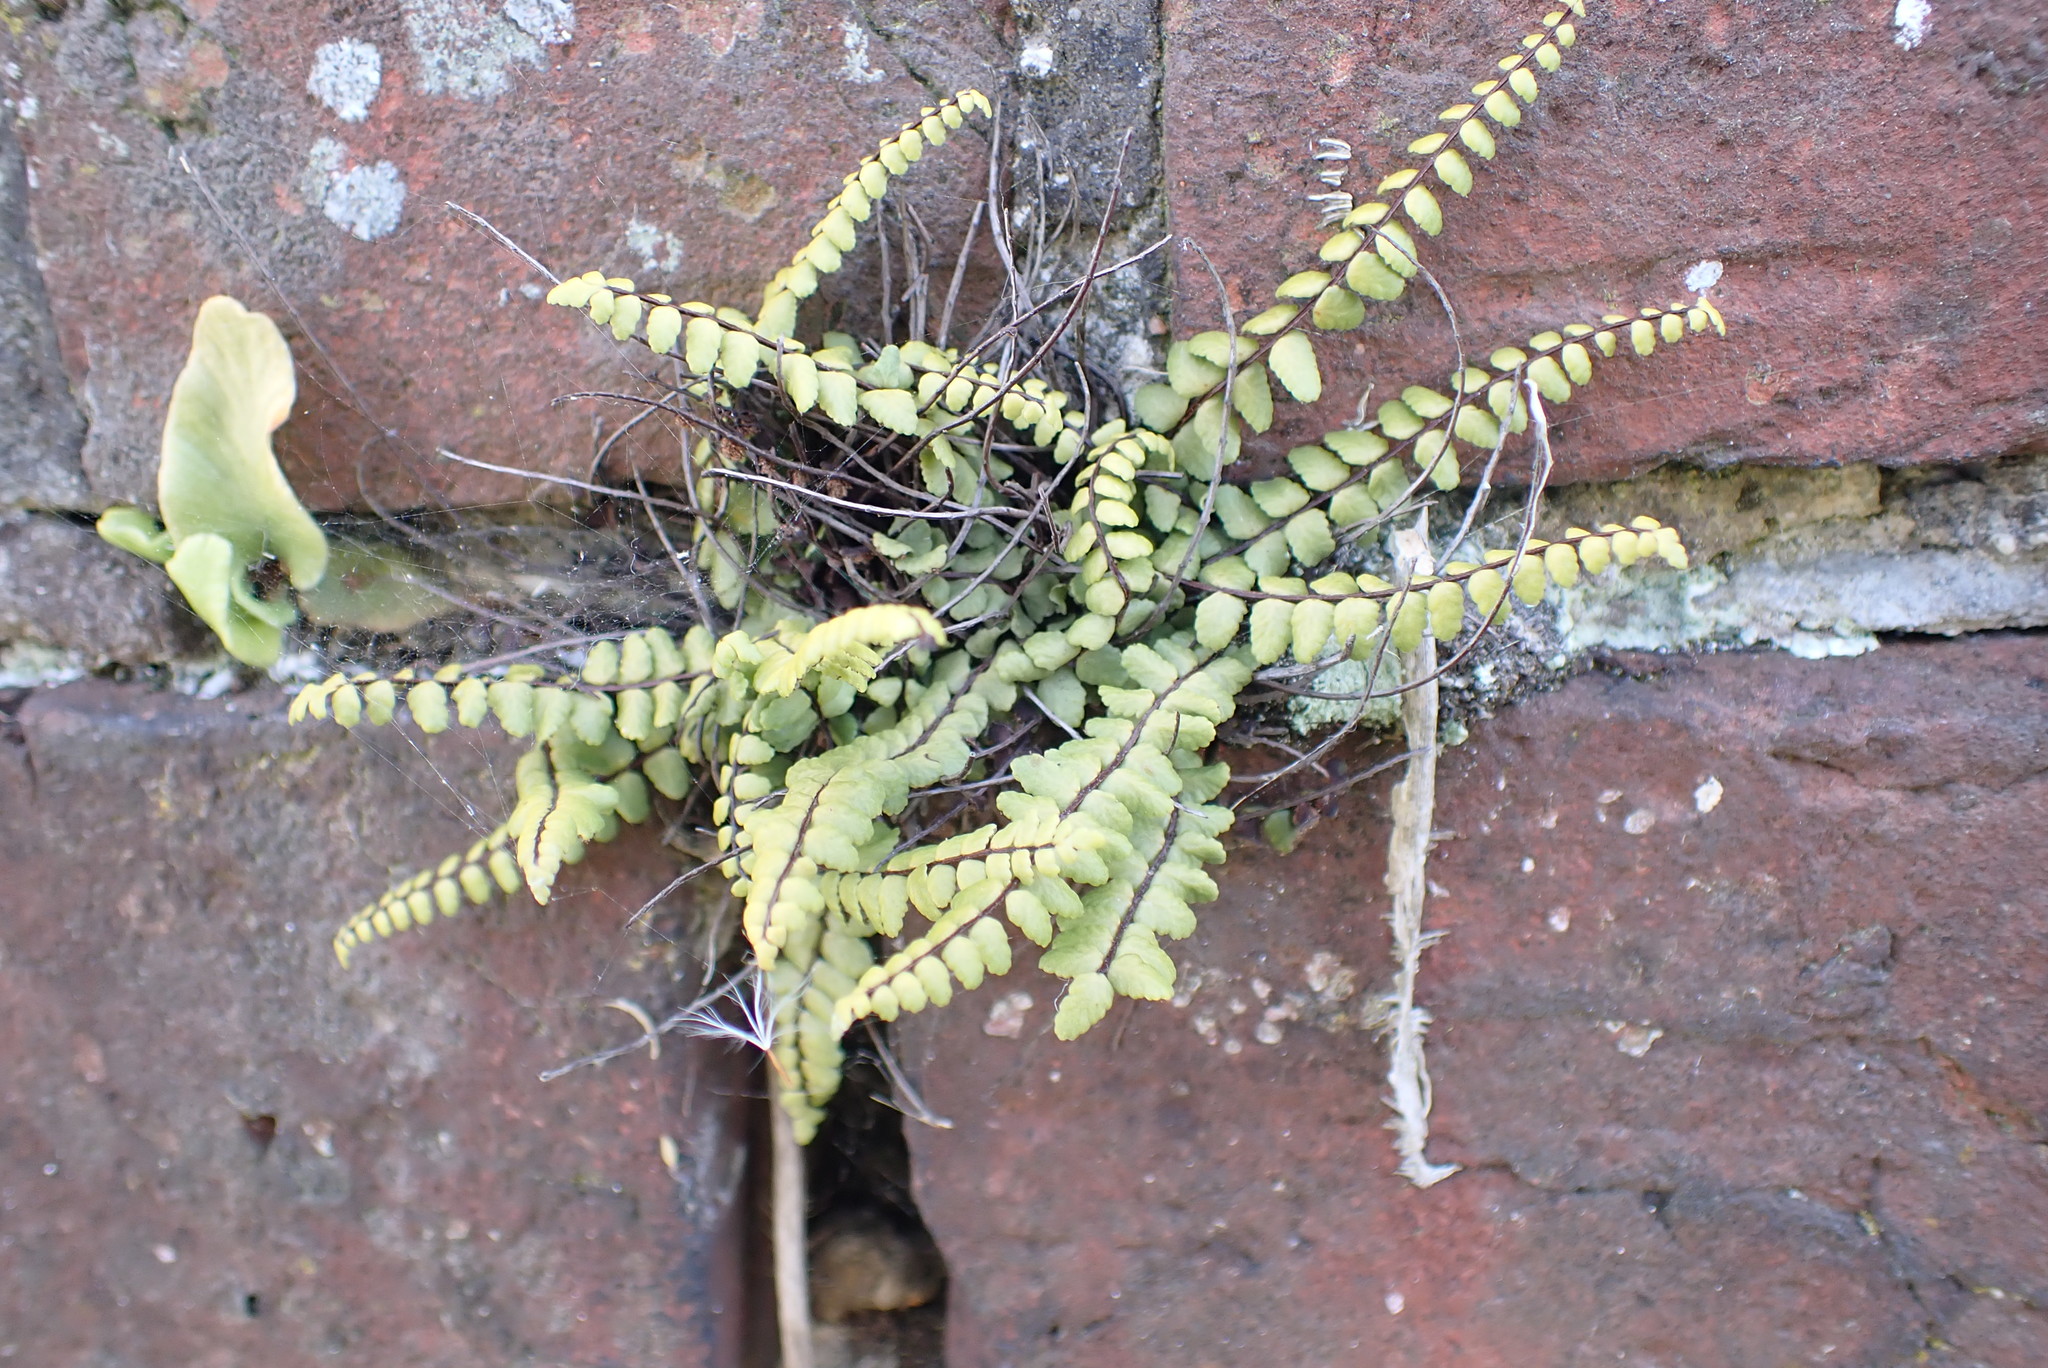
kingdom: Plantae
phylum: Tracheophyta
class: Polypodiopsida
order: Polypodiales
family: Aspleniaceae
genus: Asplenium
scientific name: Asplenium trichomanes
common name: Maidenhair spleenwort
